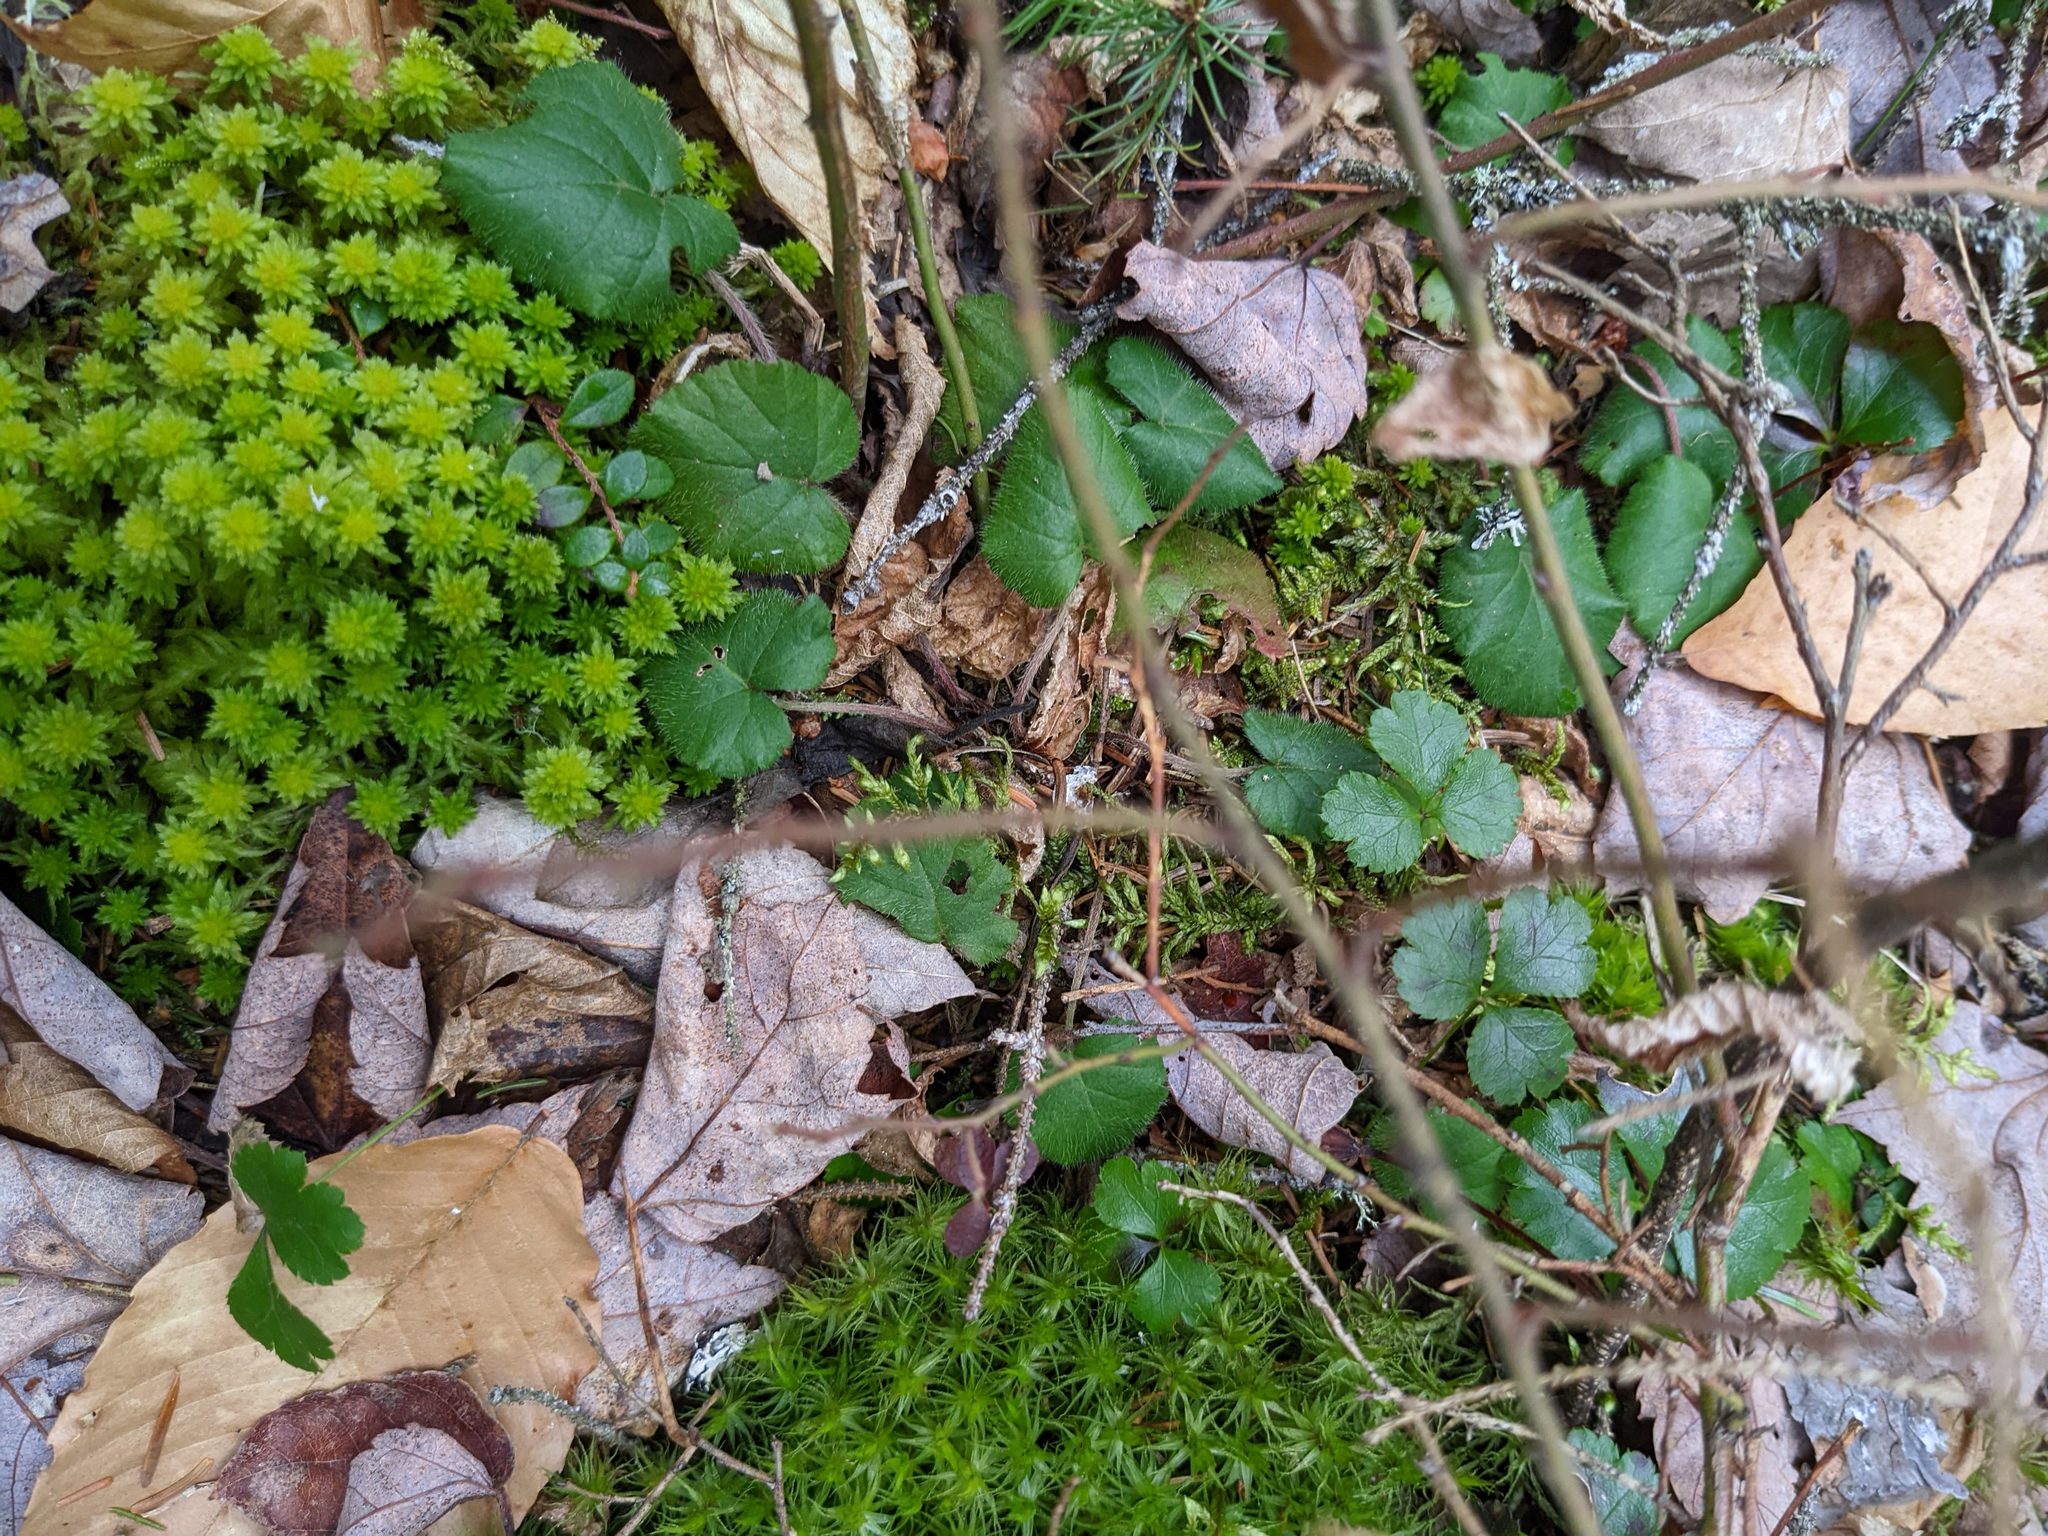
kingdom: Plantae
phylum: Tracheophyta
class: Magnoliopsida
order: Rosales
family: Rosaceae
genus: Dalibarda
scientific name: Dalibarda repens
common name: Dewdrop
